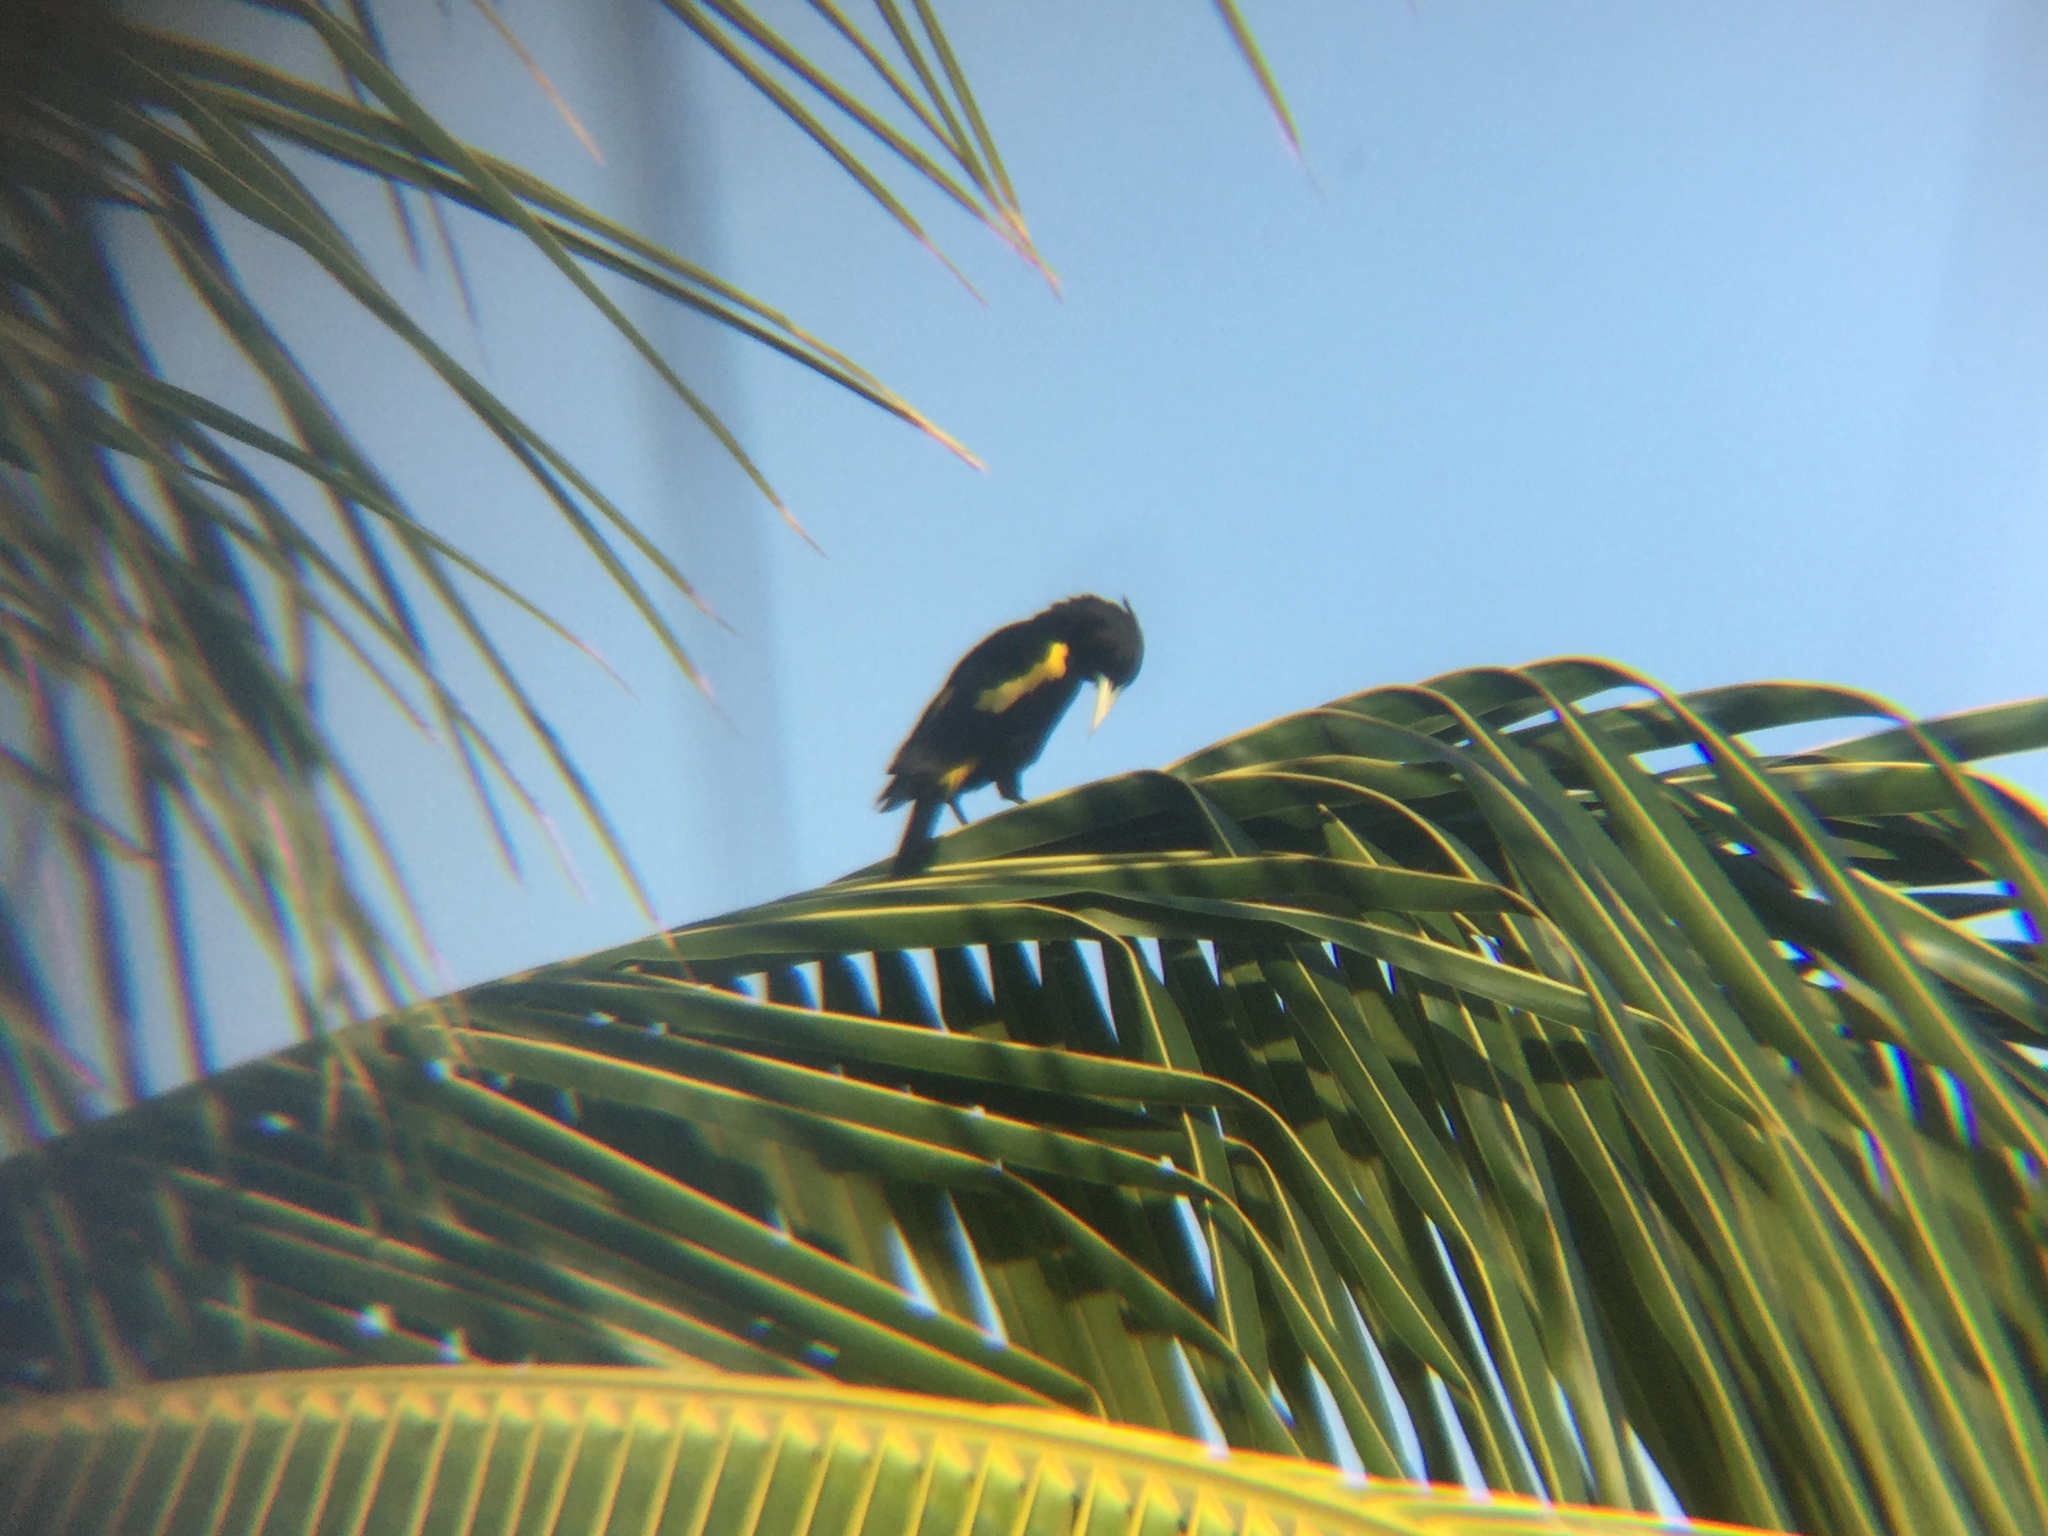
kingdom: Animalia
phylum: Chordata
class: Aves
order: Passeriformes
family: Icteridae
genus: Cacicus
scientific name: Cacicus melanicterus
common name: Yellow-winged cacique
